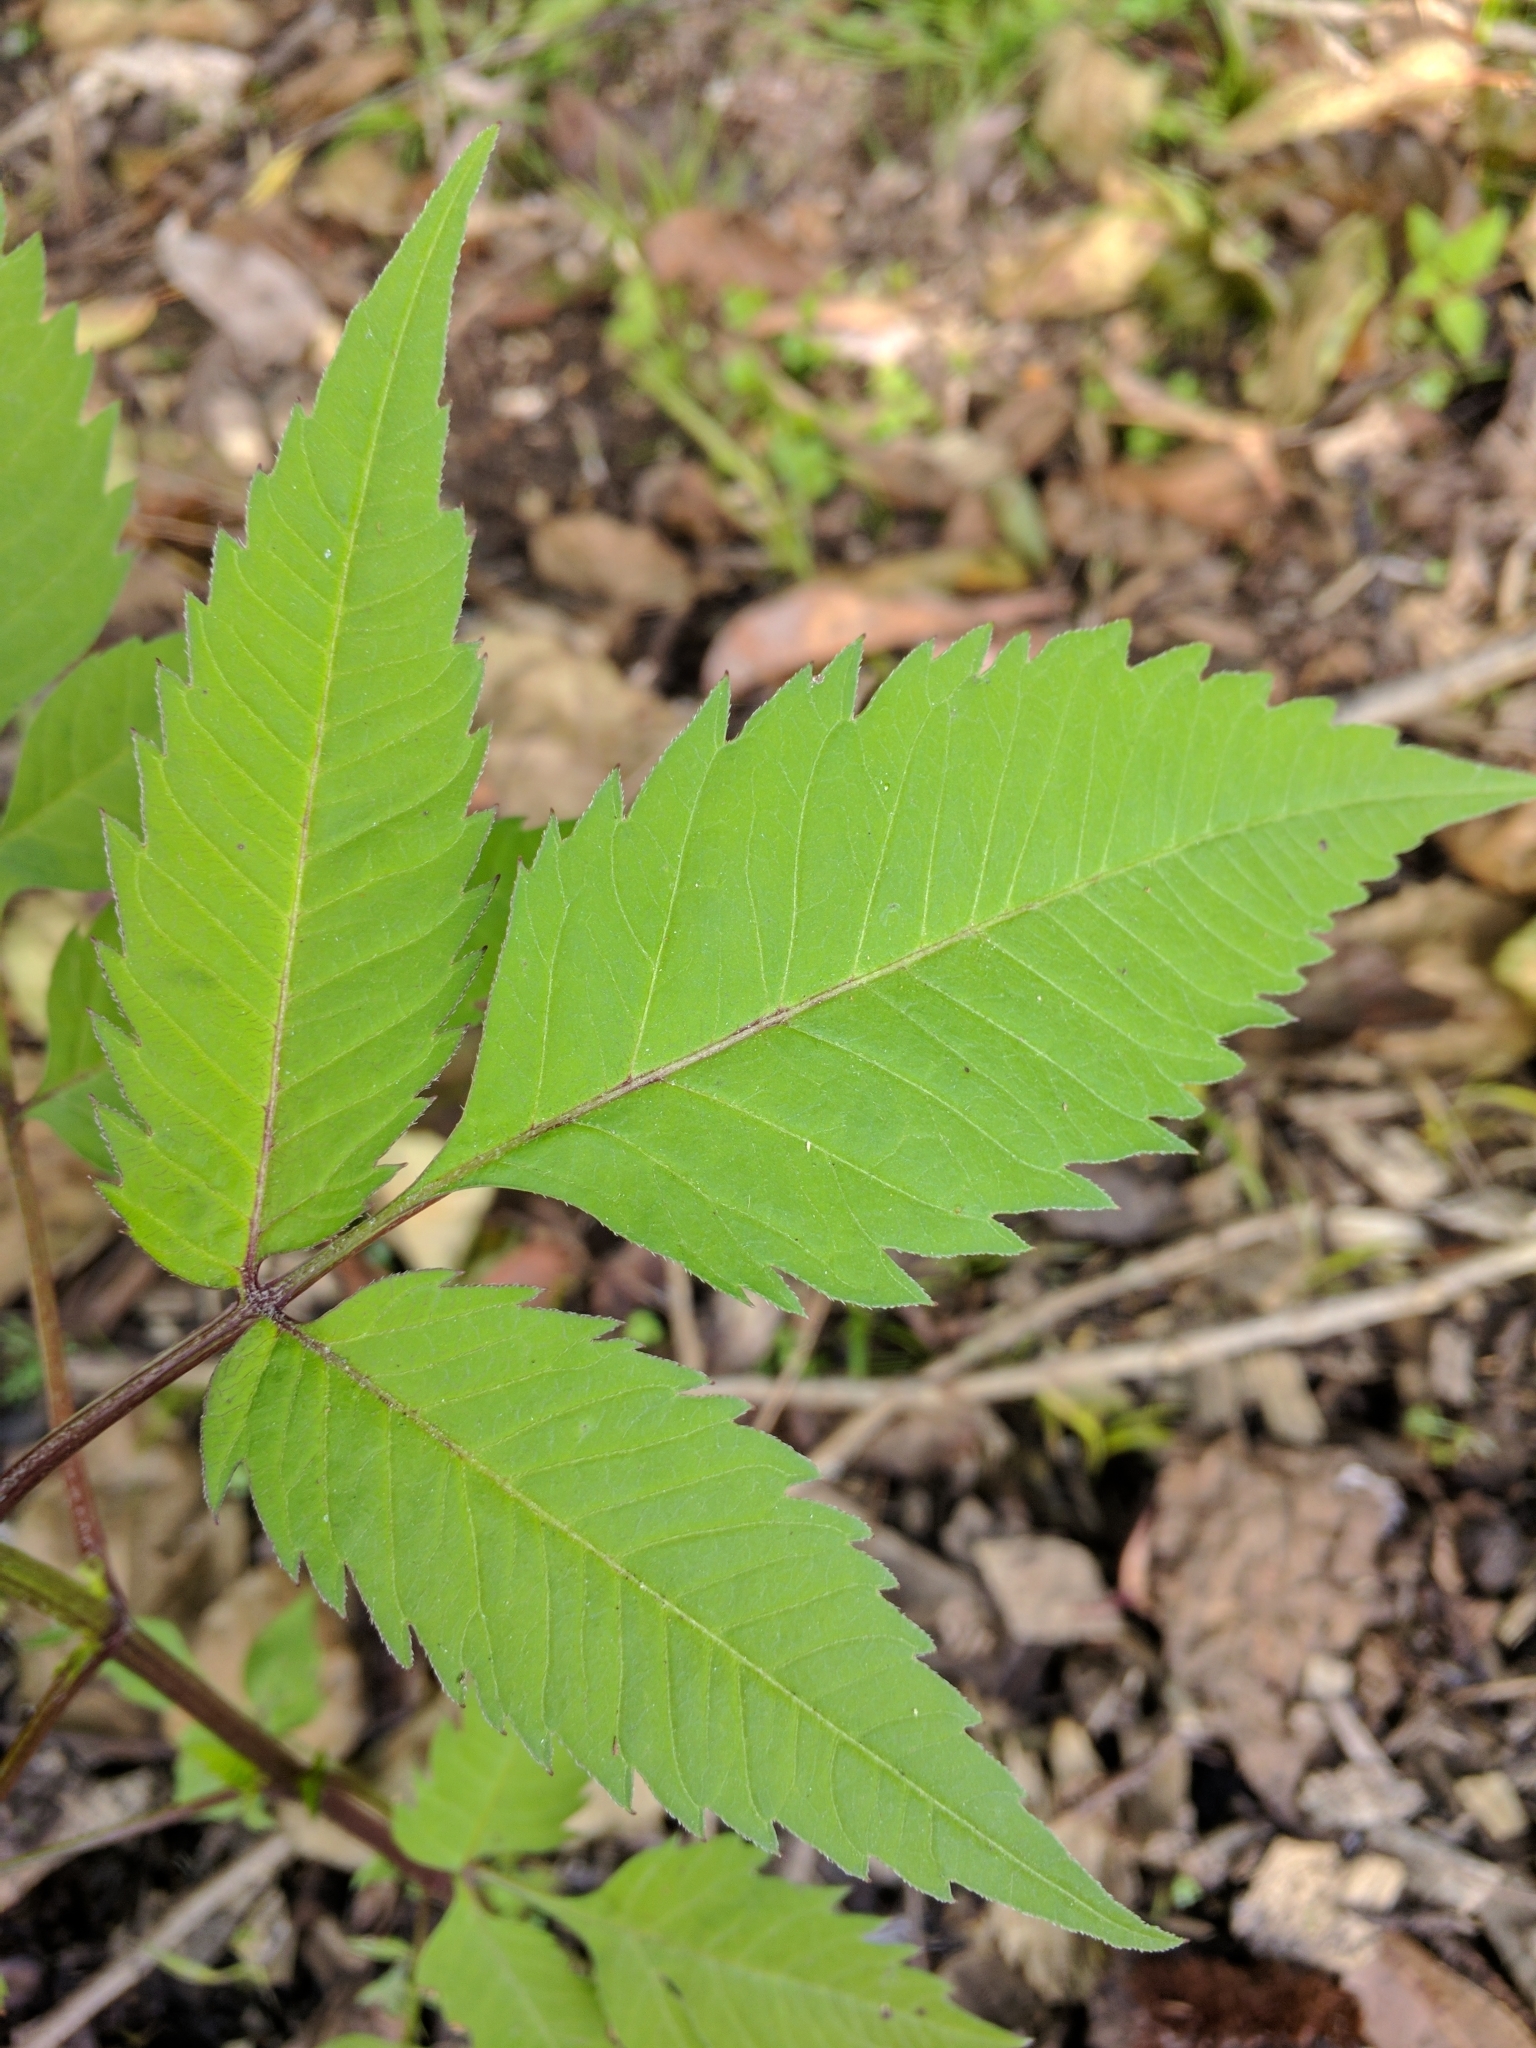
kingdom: Plantae
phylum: Tracheophyta
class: Magnoliopsida
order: Asterales
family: Asteraceae
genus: Bidens
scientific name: Bidens frondosa
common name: Beggarticks
